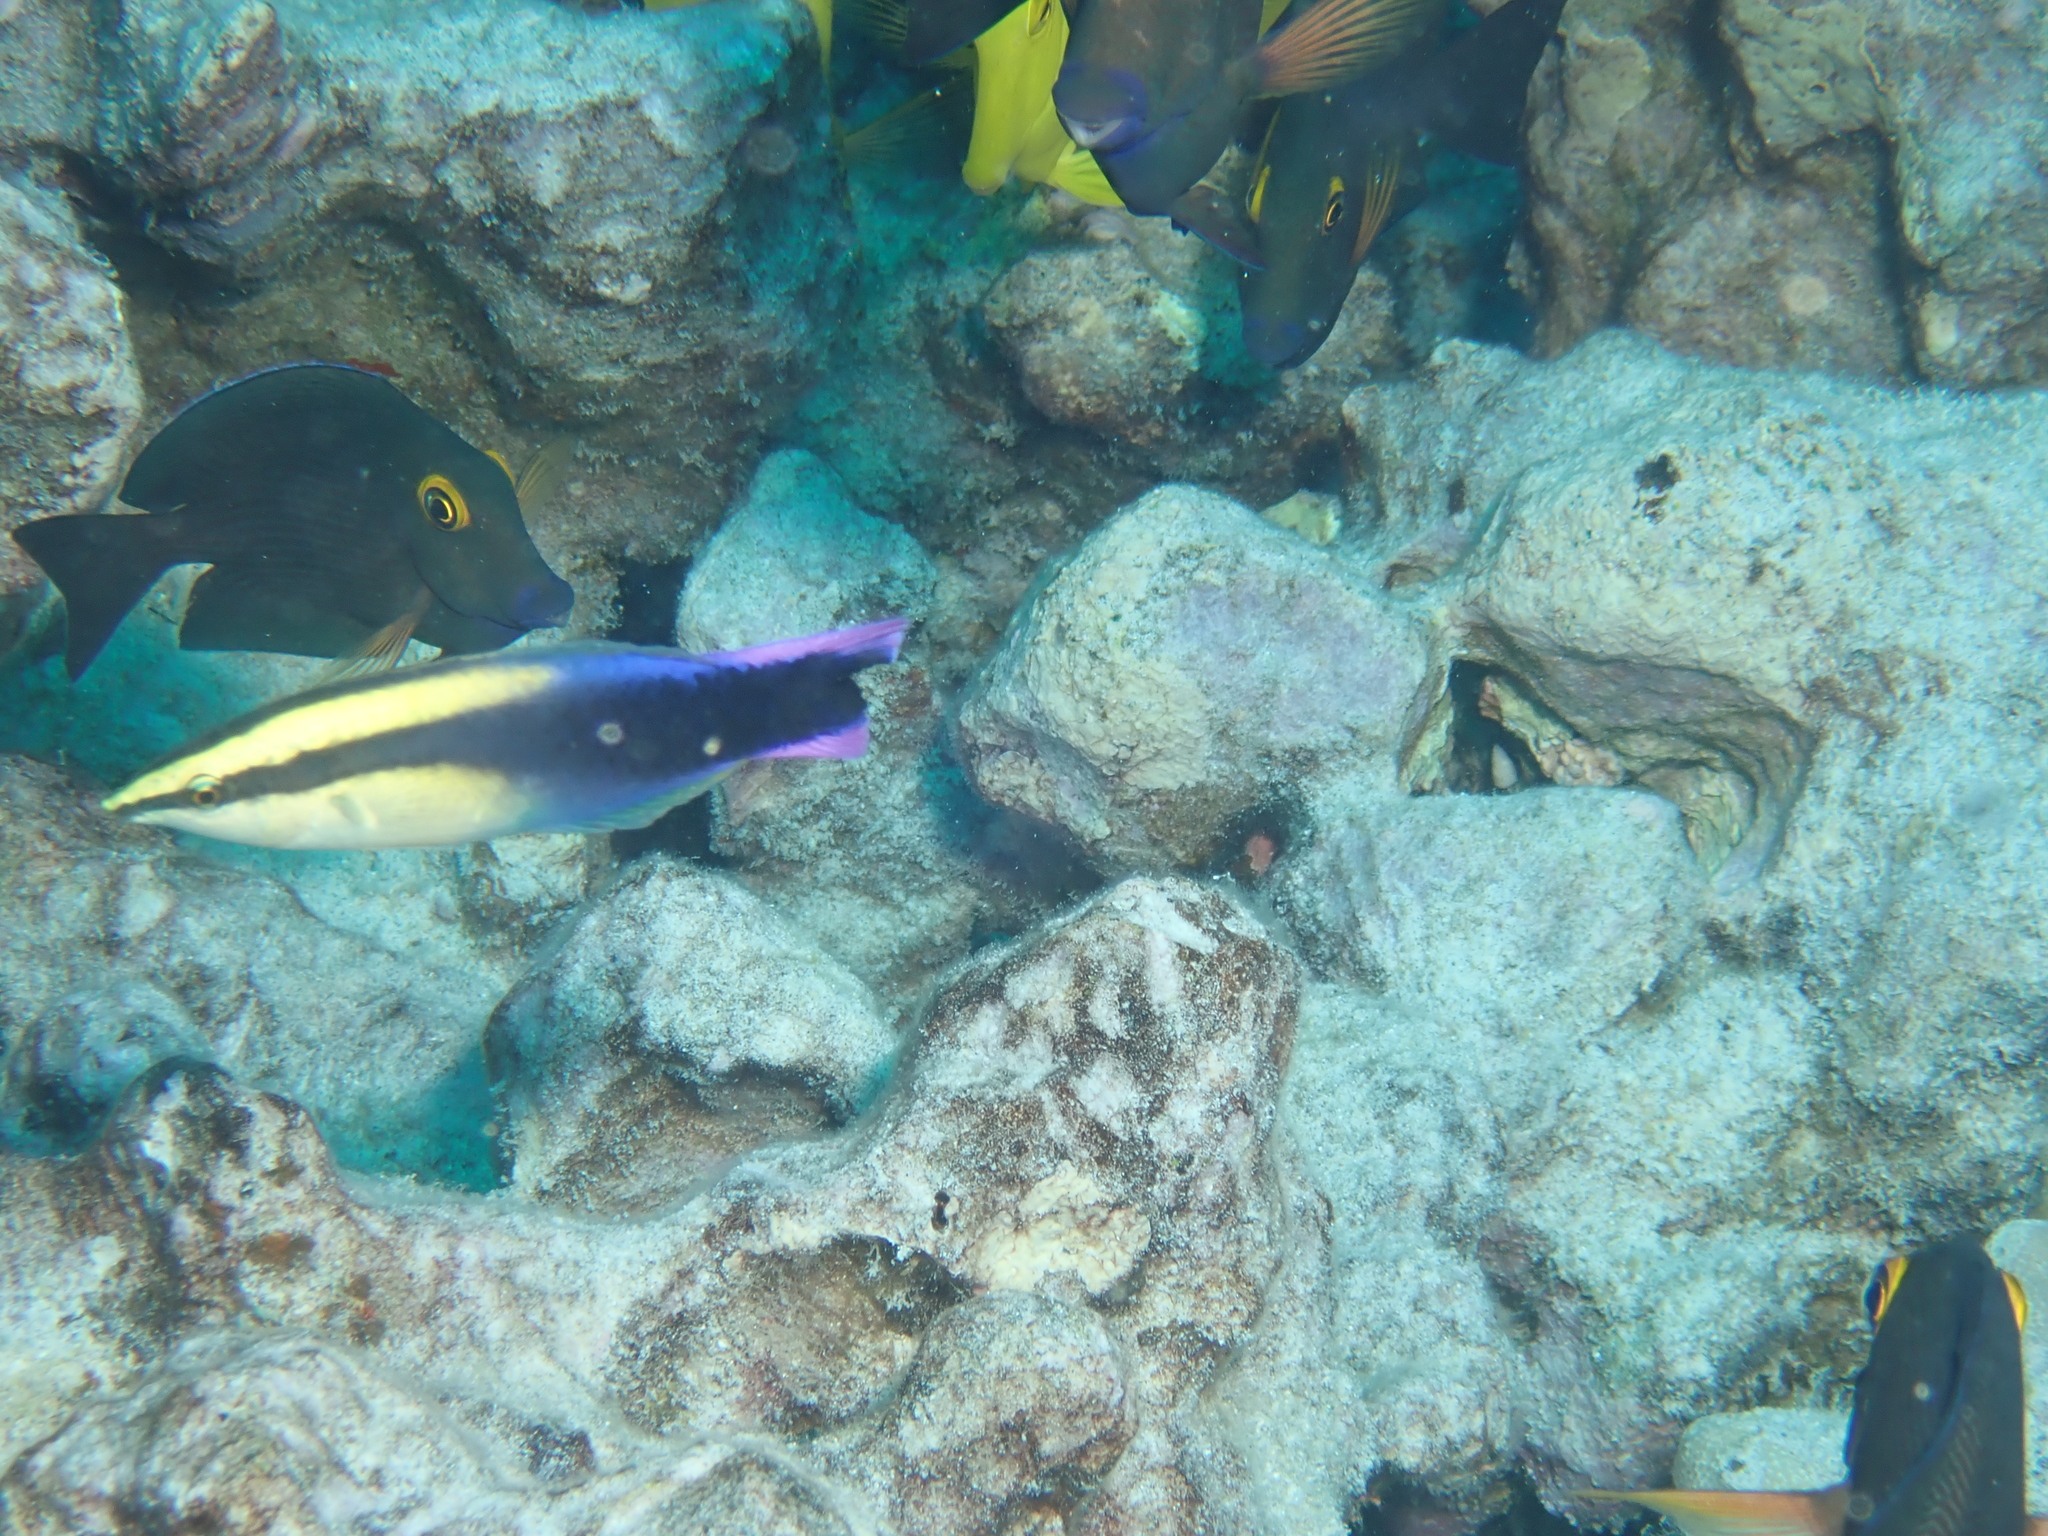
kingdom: Animalia
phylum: Chordata
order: Perciformes
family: Labridae
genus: Labroides
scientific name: Labroides phthirophagus
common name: Cleaner wrasse
